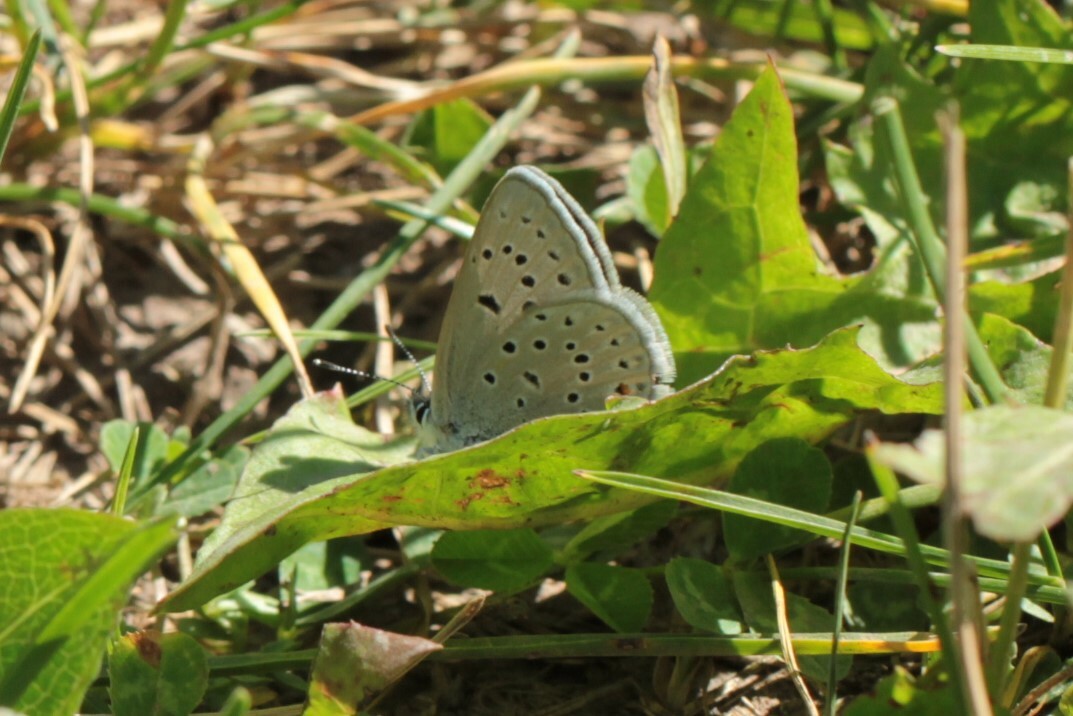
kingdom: Animalia
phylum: Arthropoda
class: Insecta
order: Lepidoptera
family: Lycaenidae
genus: Icaricia
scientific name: Icaricia saepiolus
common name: Greenish blue
